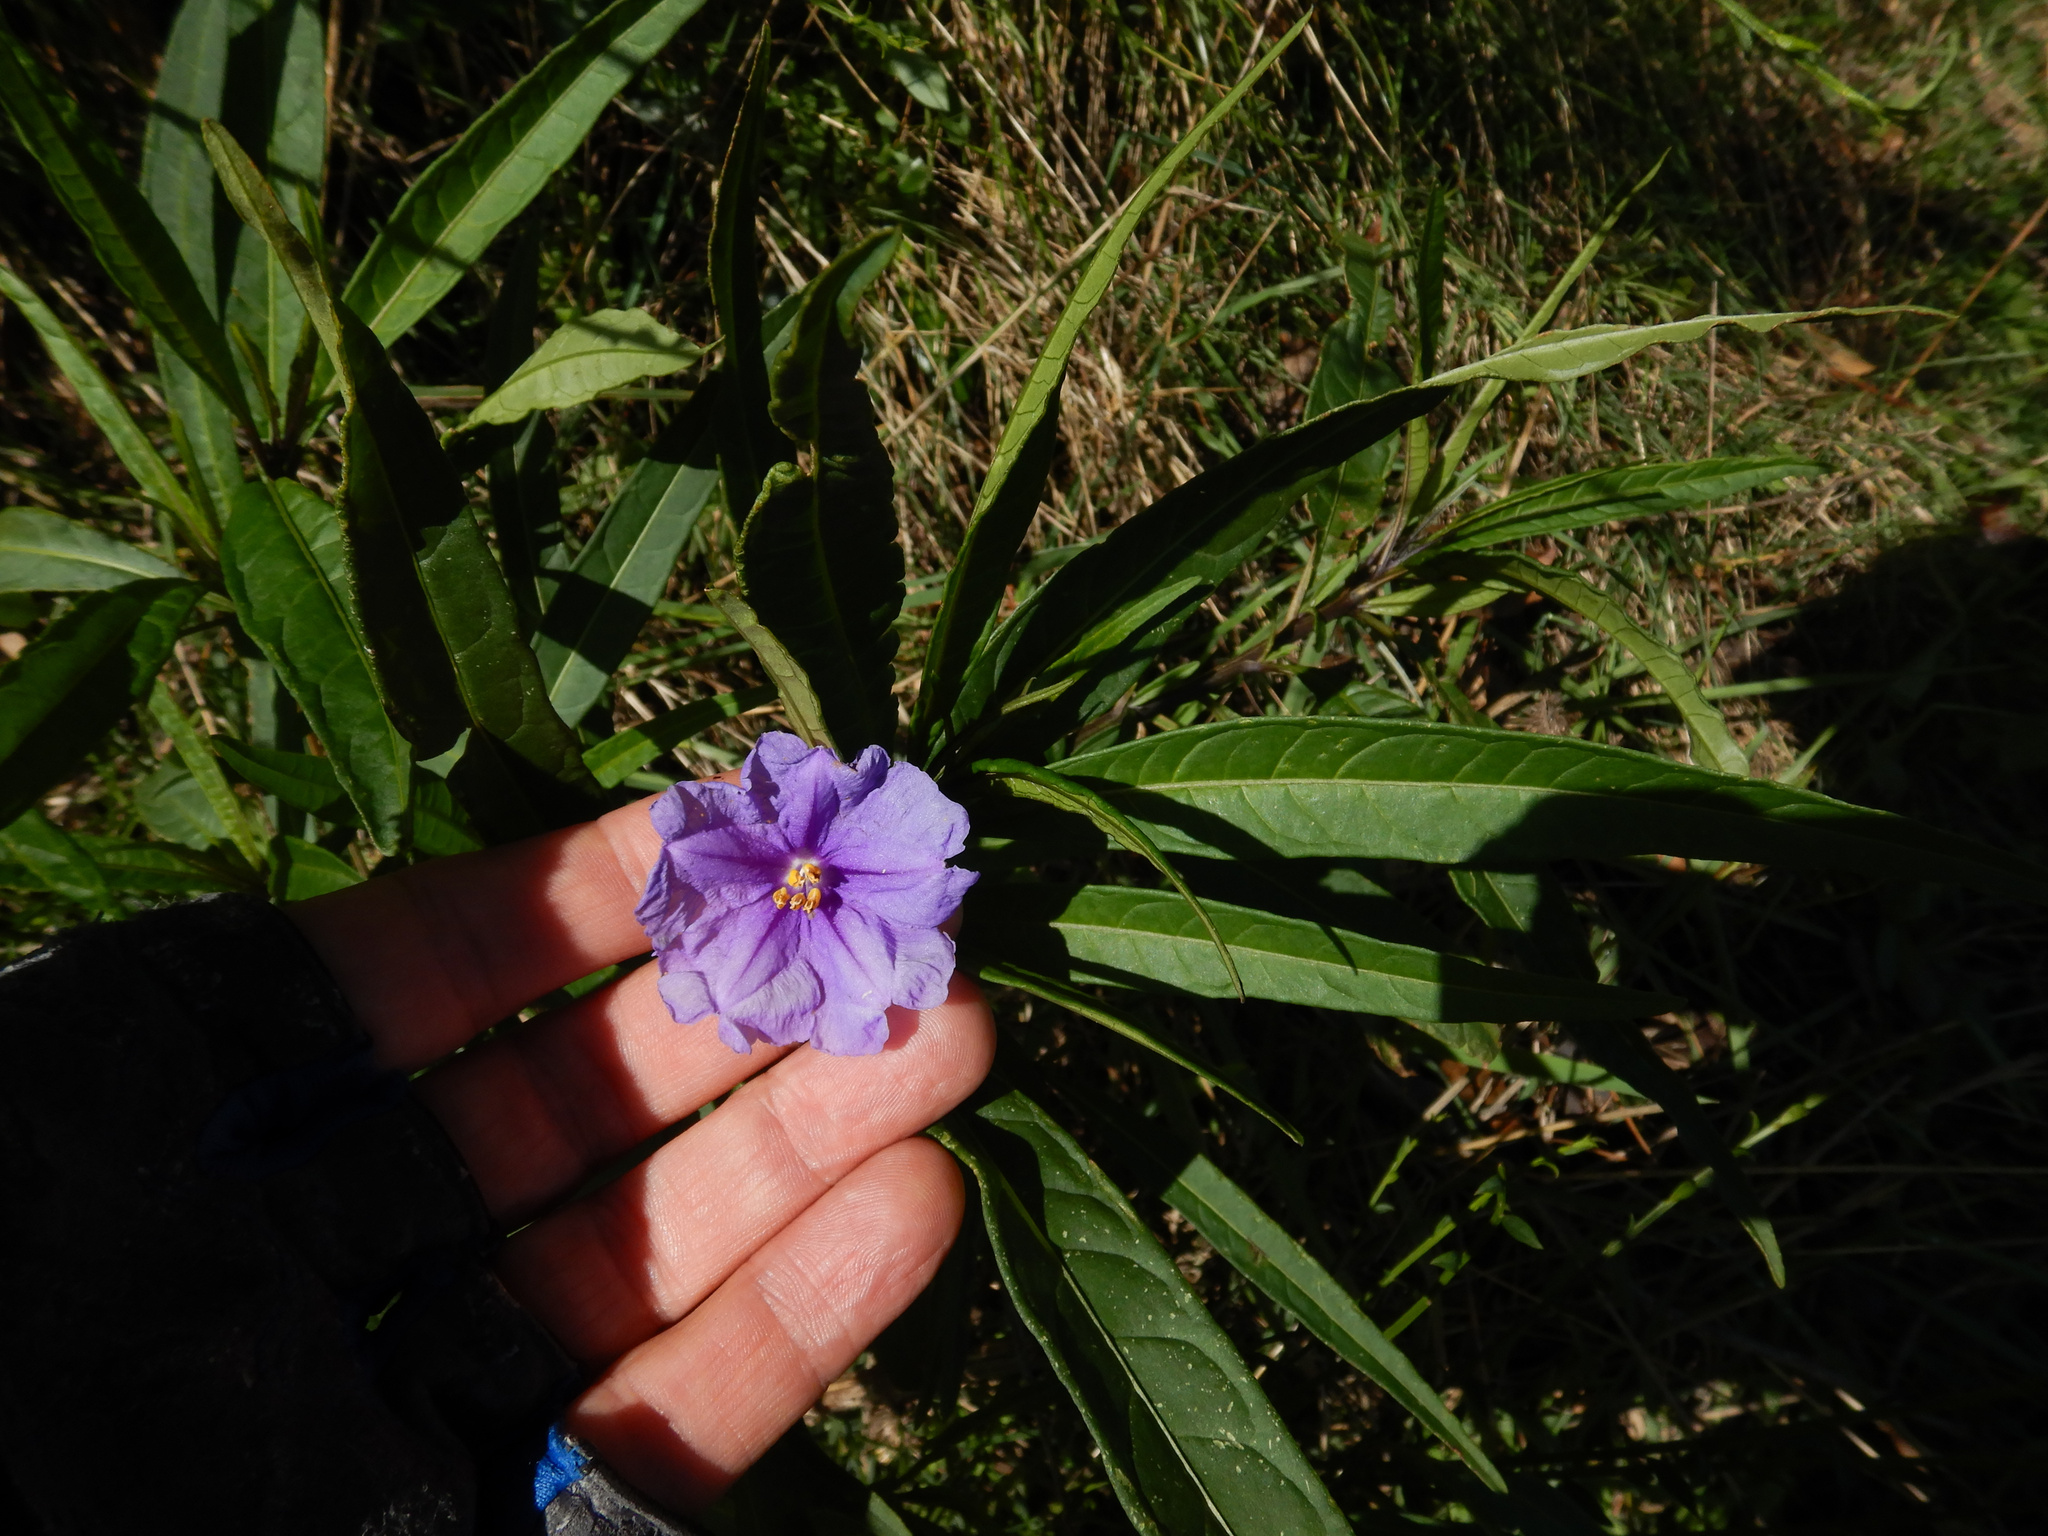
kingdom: Plantae
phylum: Tracheophyta
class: Magnoliopsida
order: Solanales
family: Solanaceae
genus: Solanum
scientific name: Solanum laciniatum
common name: Kangaroo-apple
